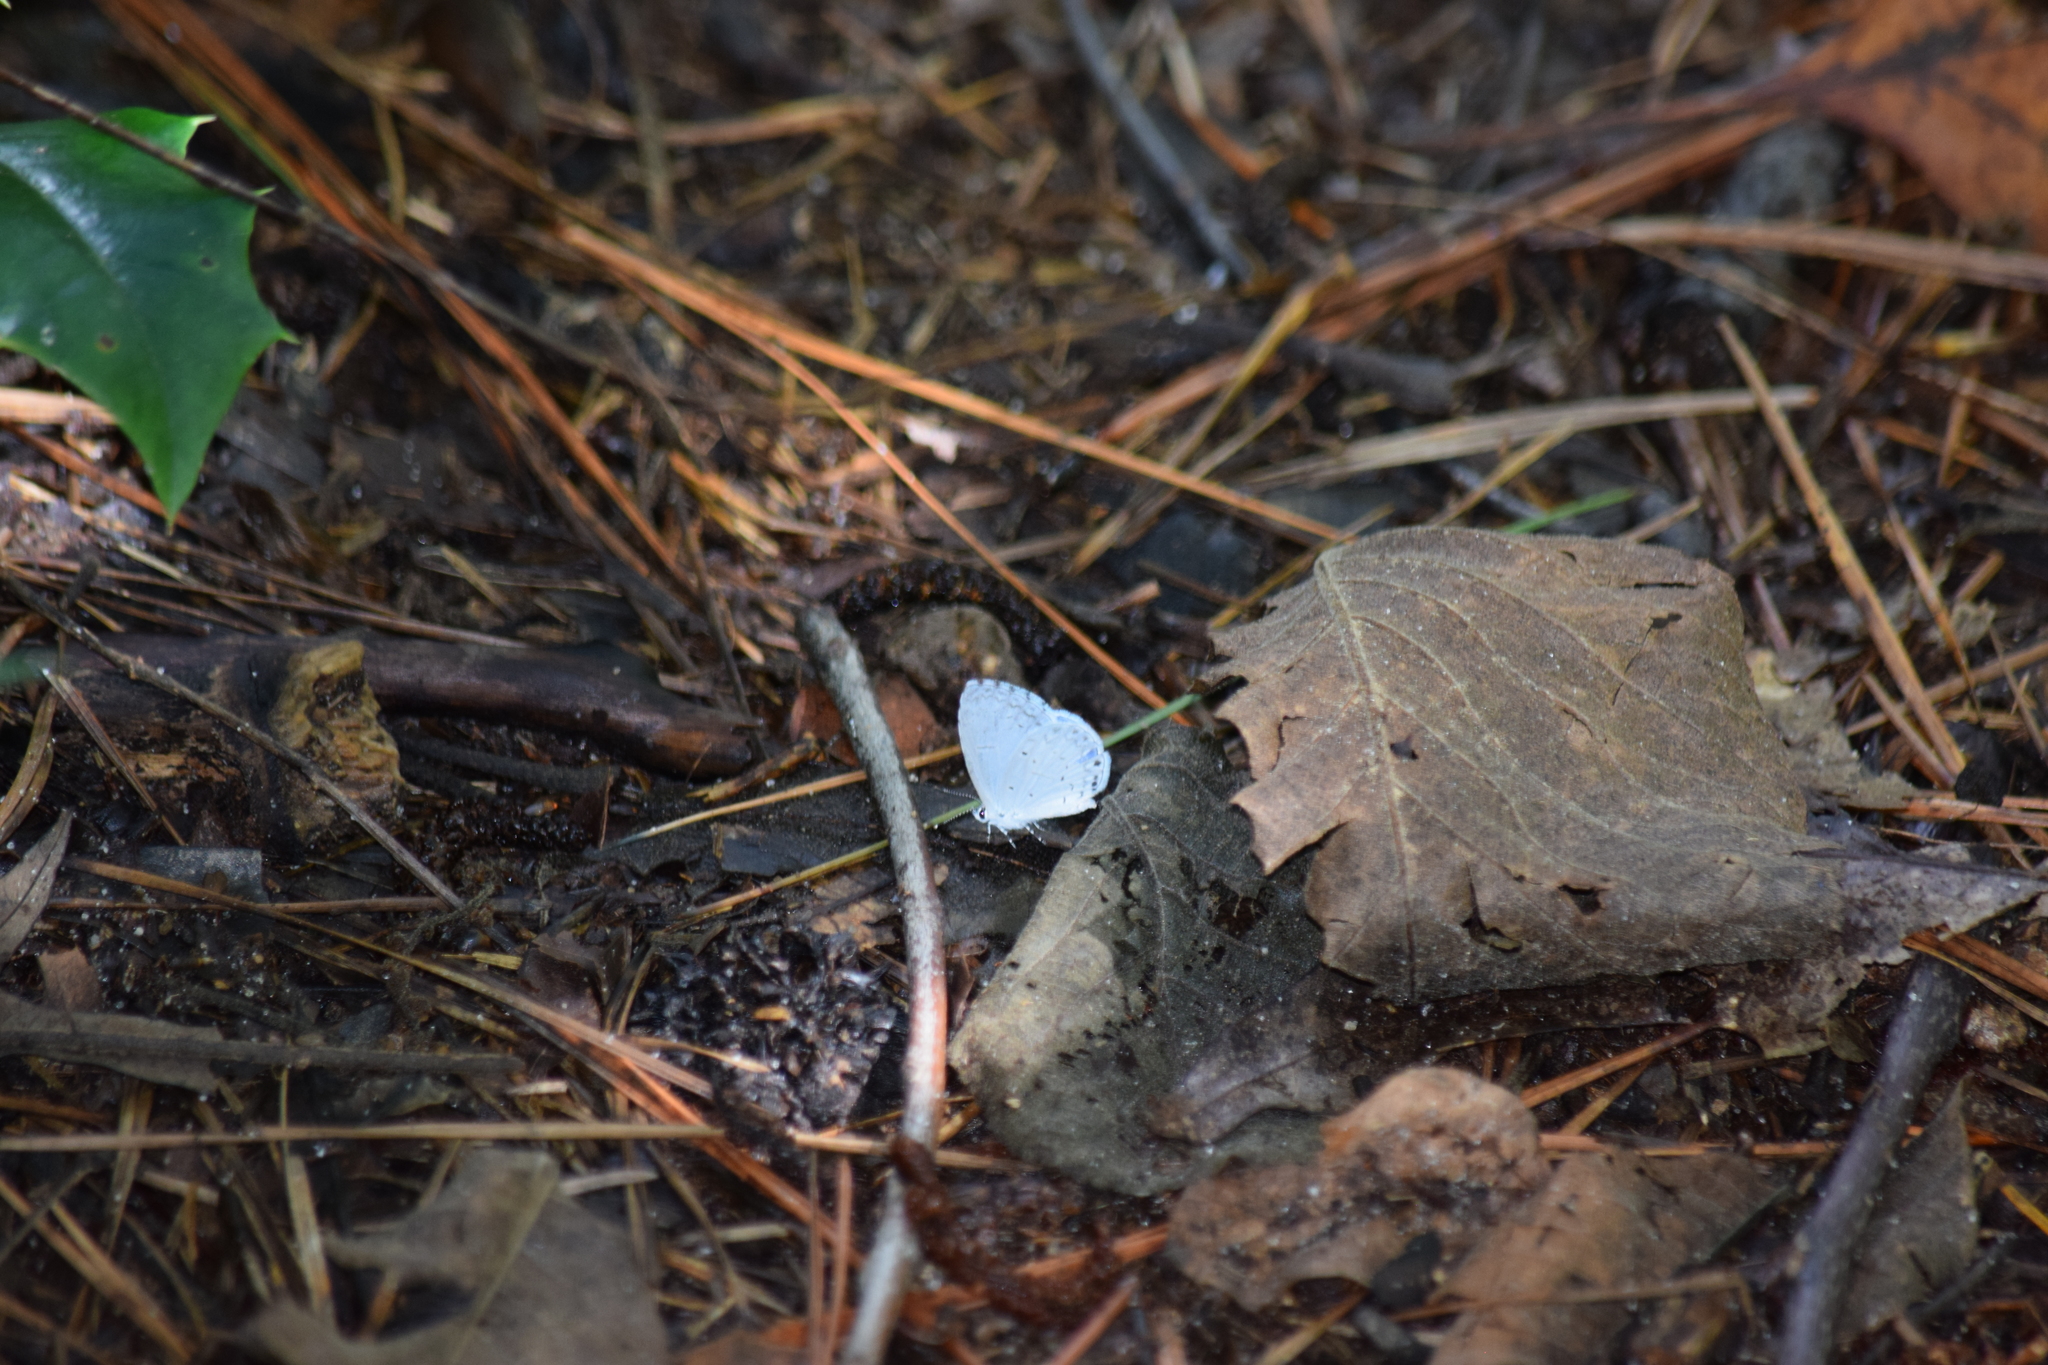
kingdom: Animalia
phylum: Arthropoda
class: Insecta
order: Lepidoptera
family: Lycaenidae
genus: Cyaniris
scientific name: Cyaniris neglecta
